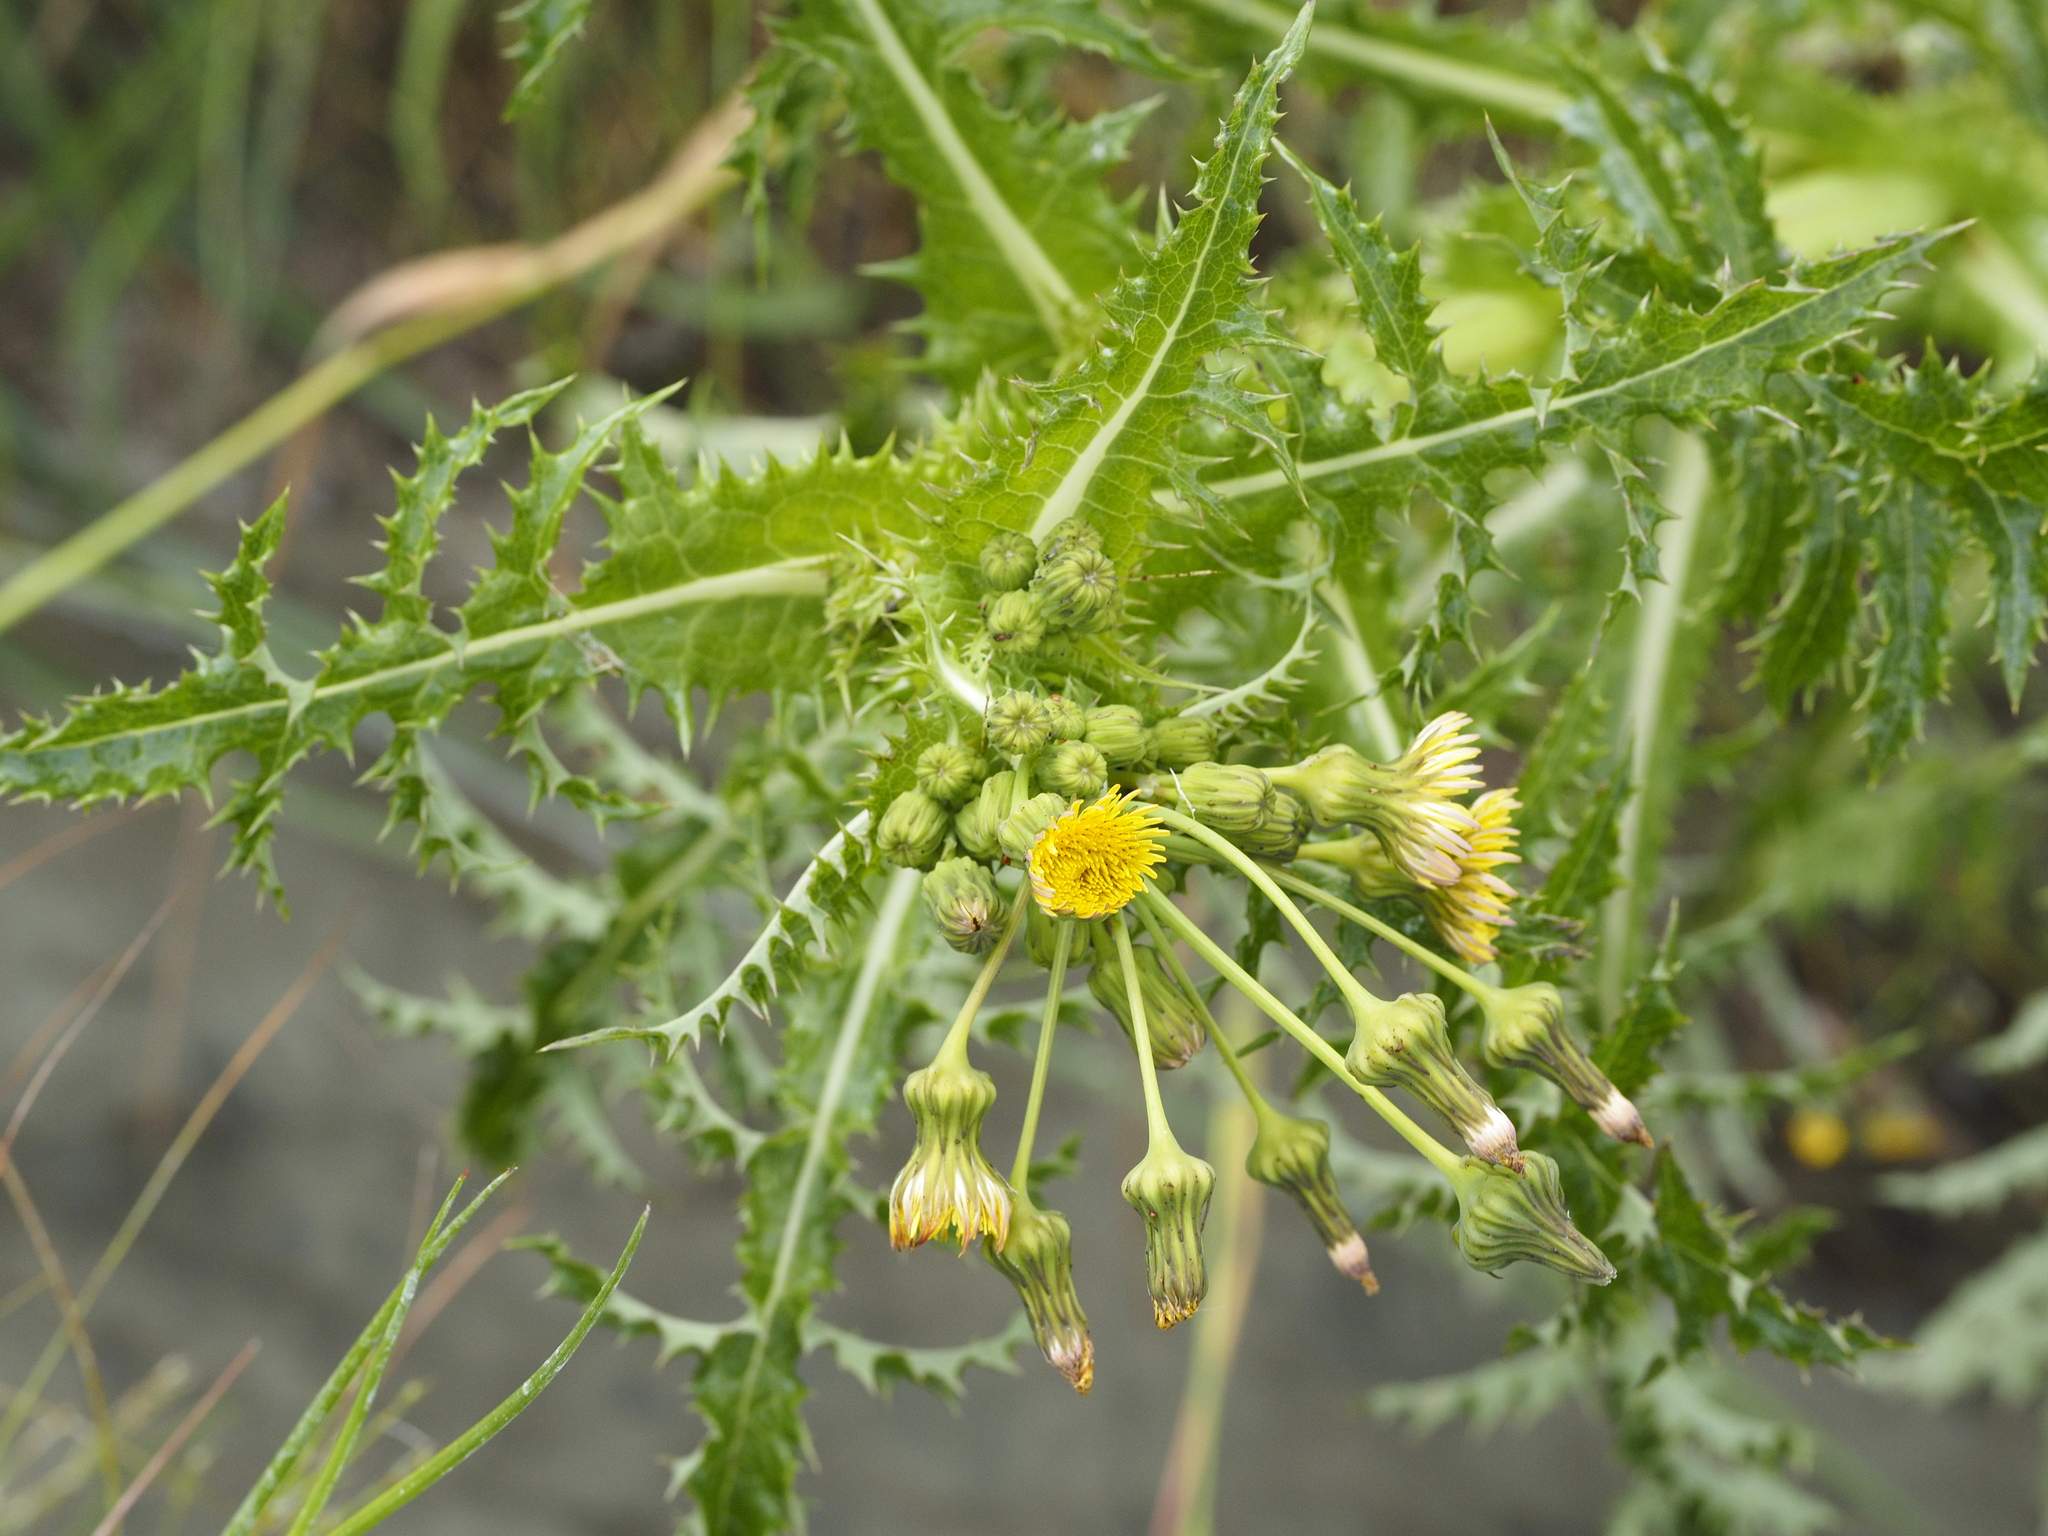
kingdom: Plantae
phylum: Tracheophyta
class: Magnoliopsida
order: Asterales
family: Asteraceae
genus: Sonchus
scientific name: Sonchus asper
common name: Prickly sow-thistle
